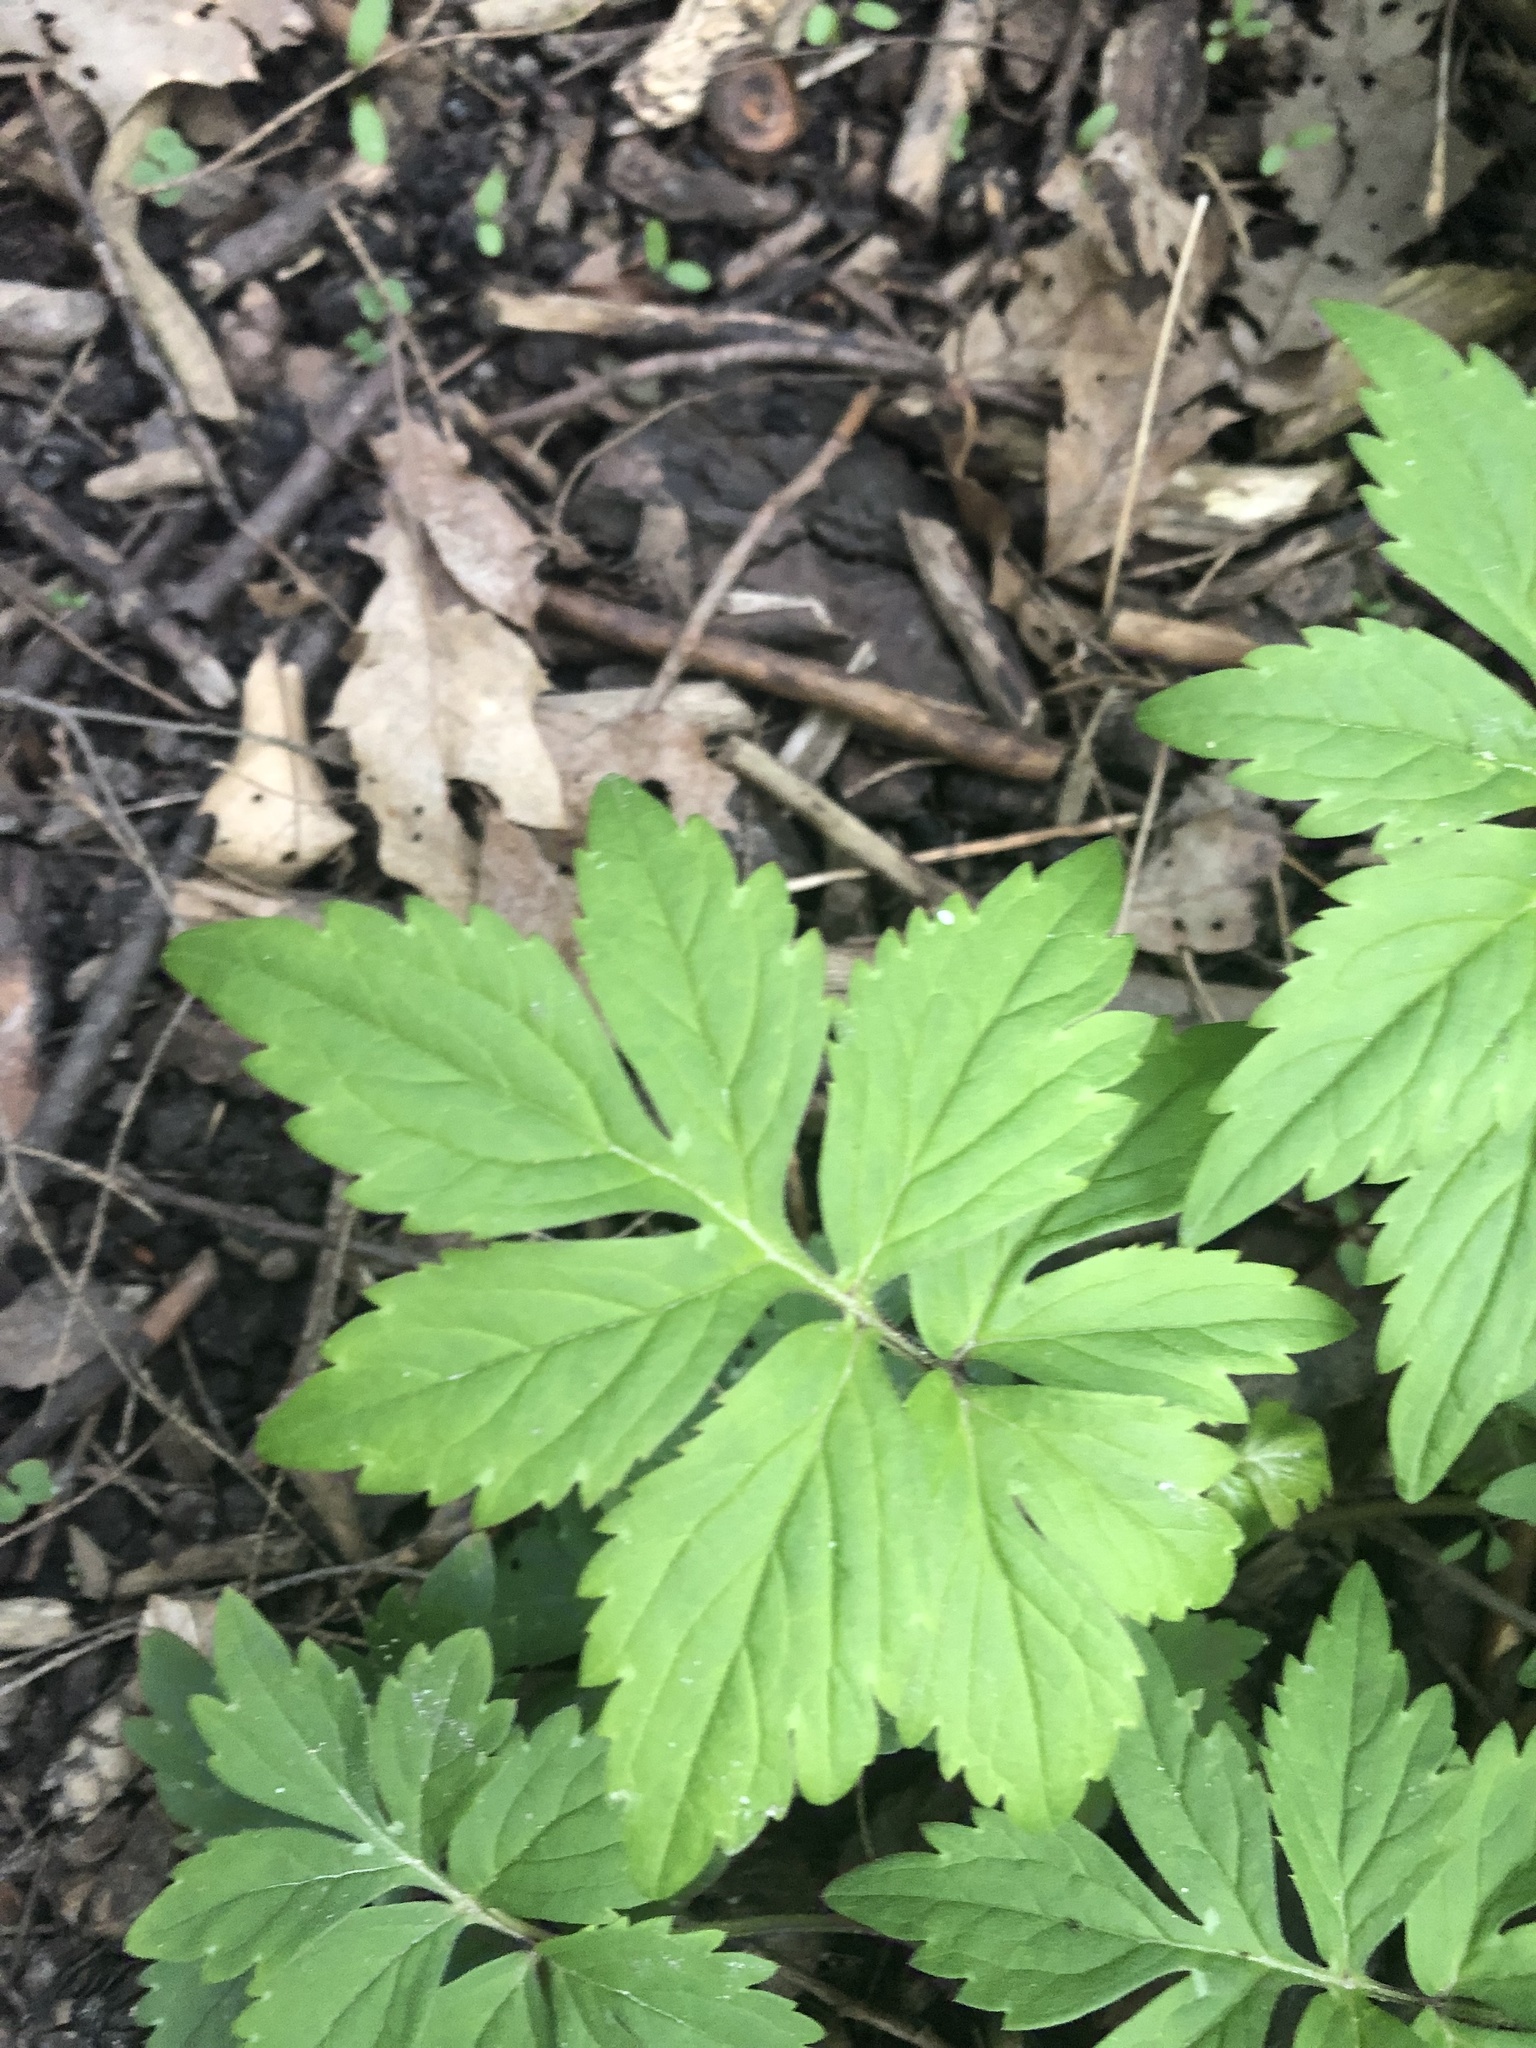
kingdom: Plantae
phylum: Tracheophyta
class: Magnoliopsida
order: Boraginales
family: Hydrophyllaceae
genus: Hydrophyllum
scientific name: Hydrophyllum virginianum
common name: Virginia waterleaf
